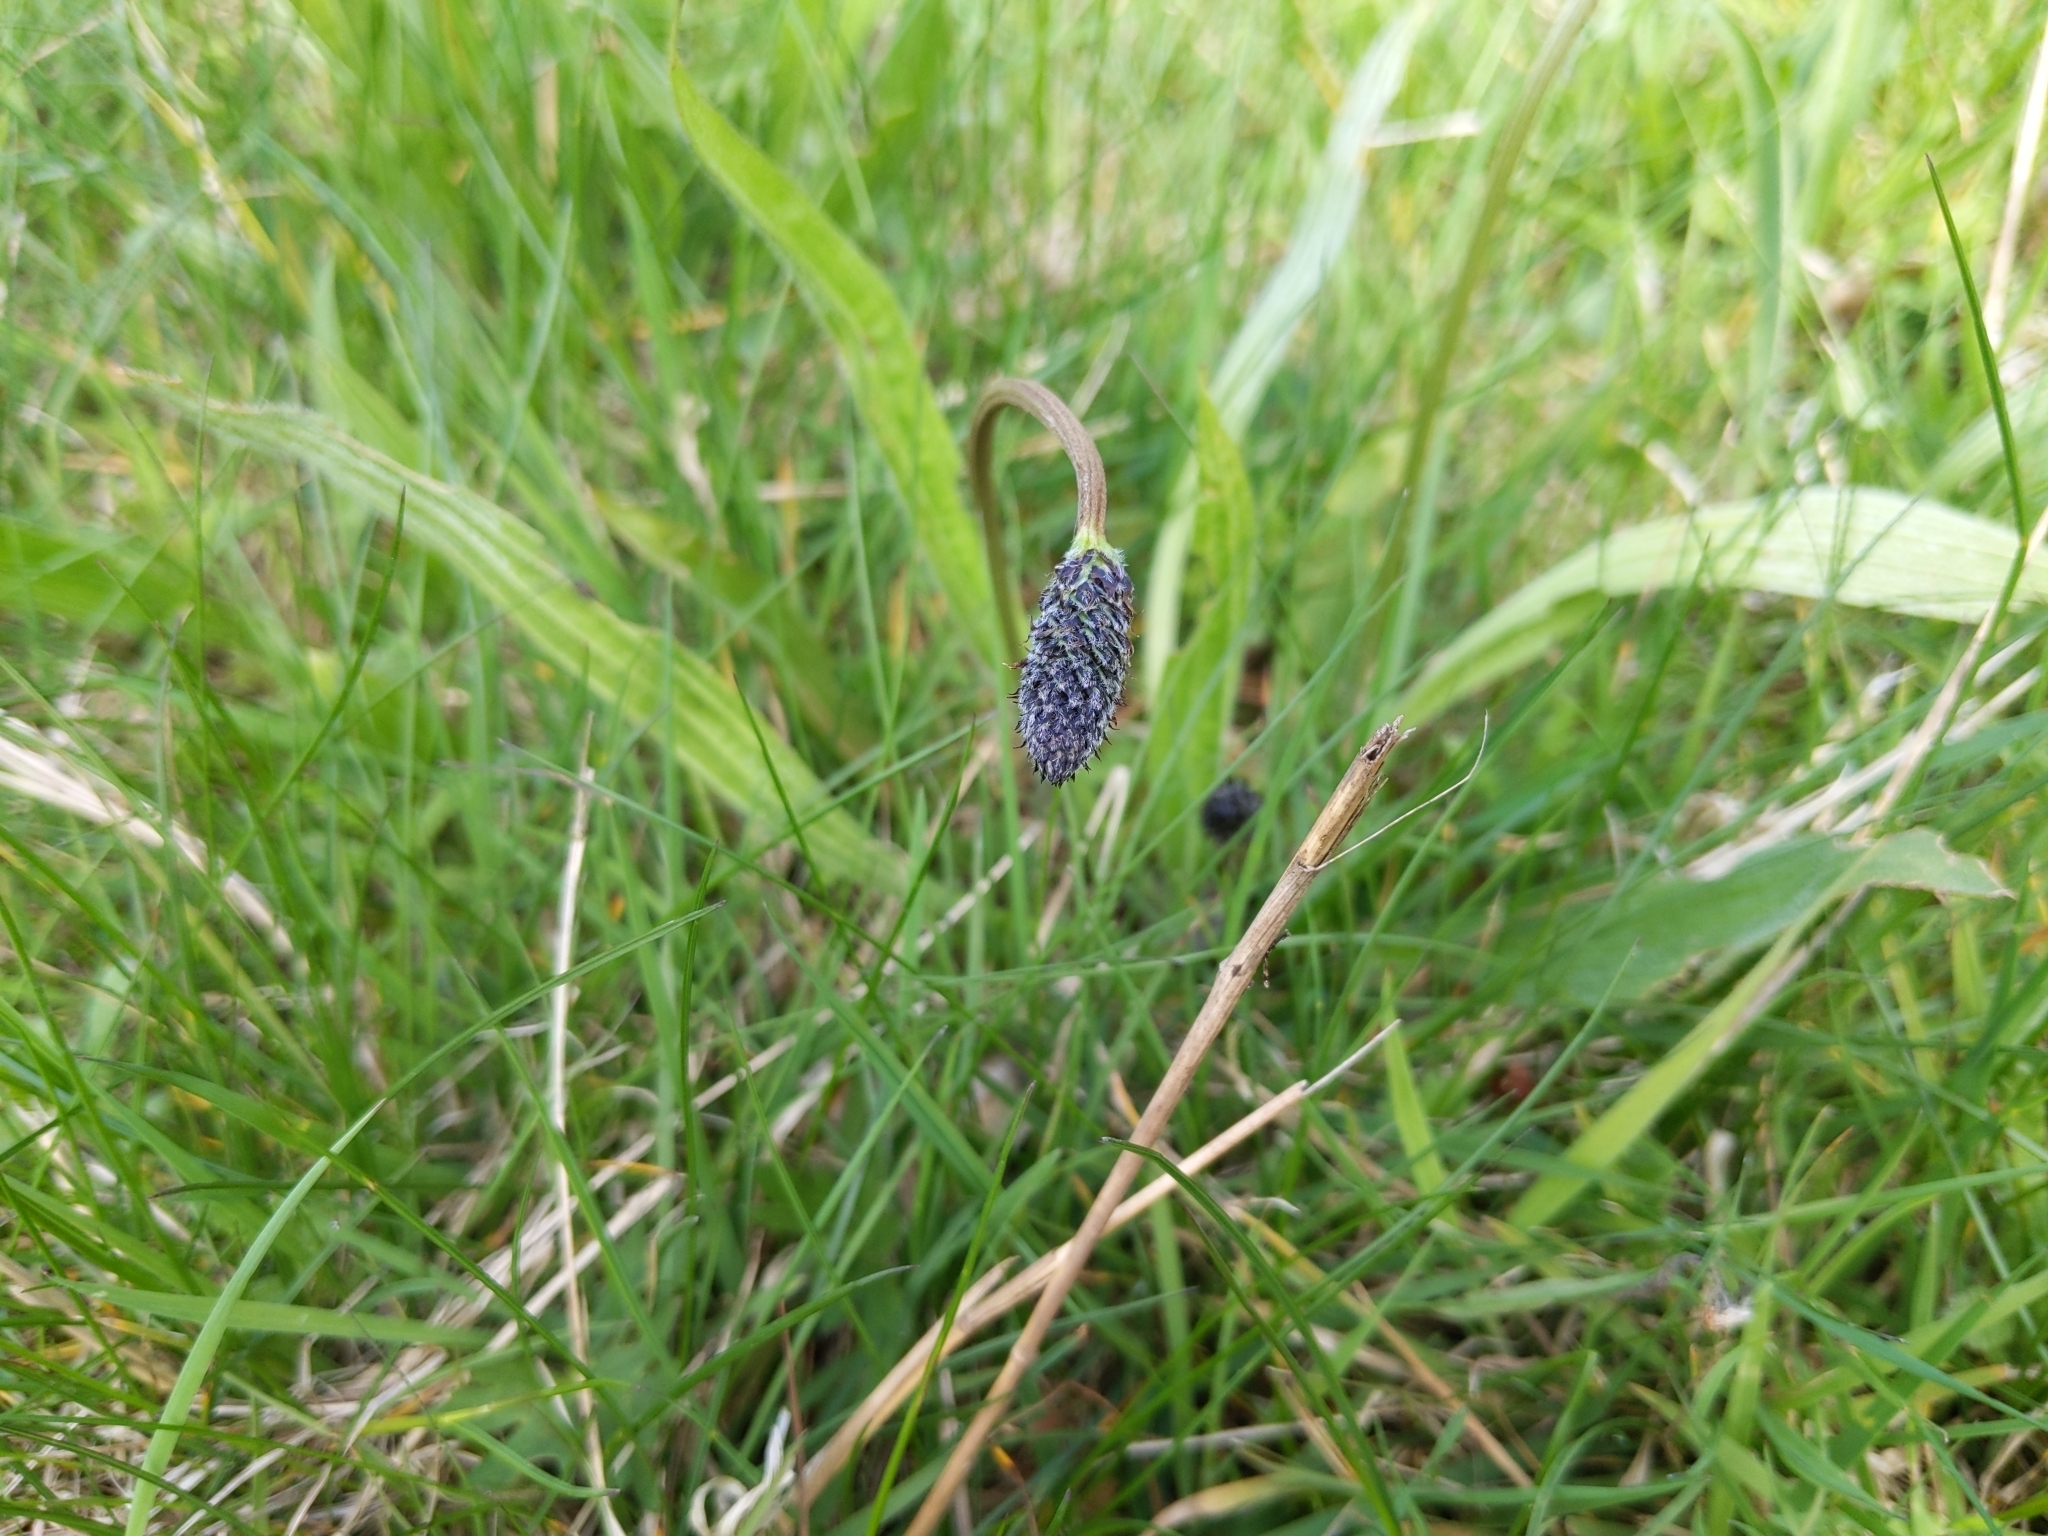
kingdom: Plantae
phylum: Tracheophyta
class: Magnoliopsida
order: Lamiales
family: Plantaginaceae
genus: Plantago
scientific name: Plantago lanceolata
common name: Ribwort plantain
